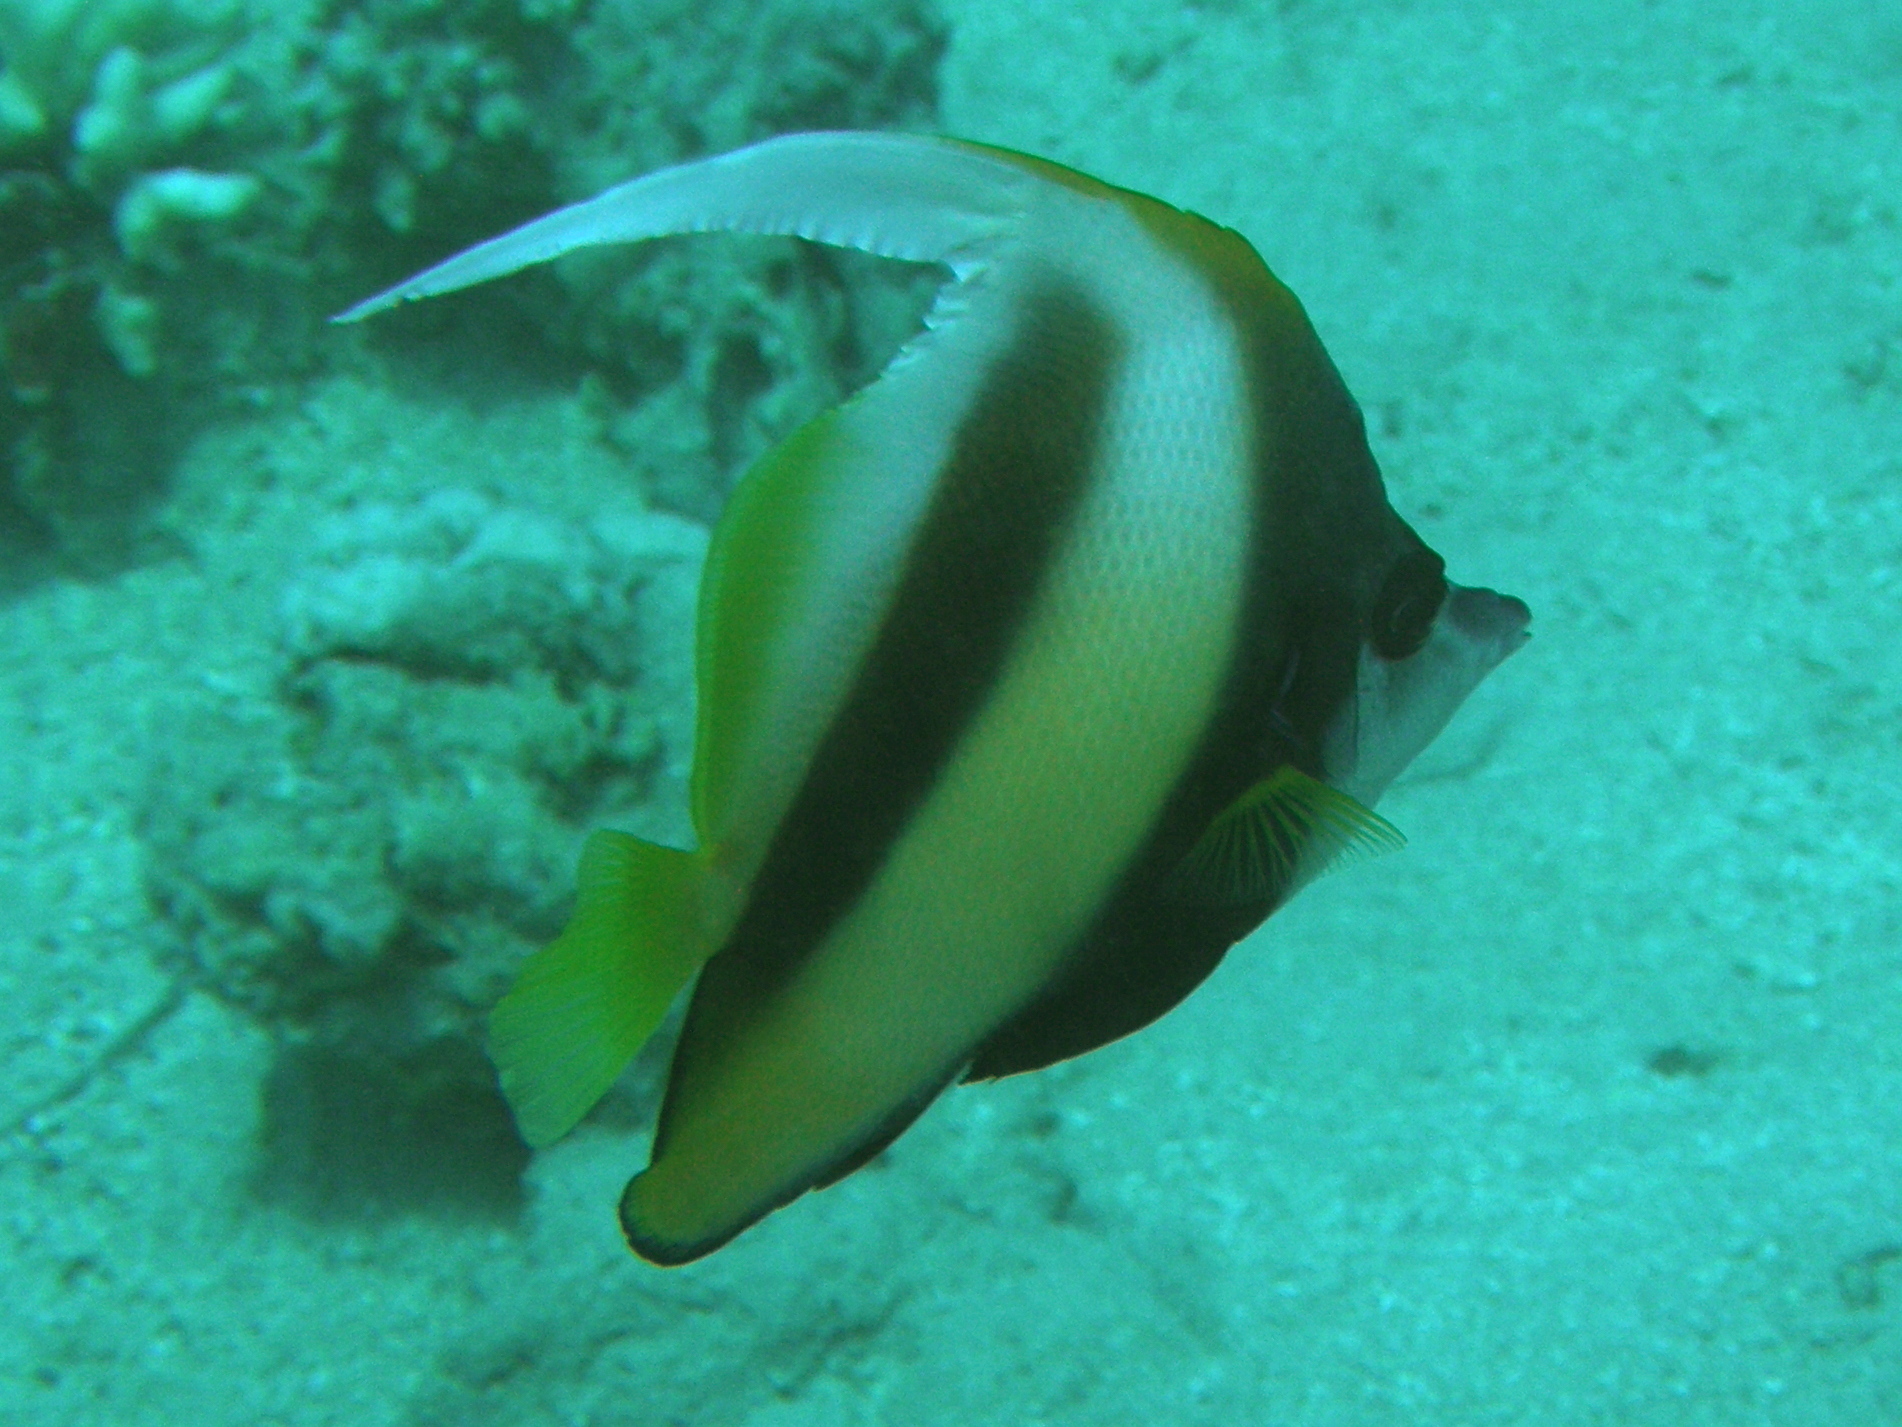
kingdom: Animalia
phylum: Chordata
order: Perciformes
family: Chaetodontidae
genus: Heniochus
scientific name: Heniochus intermedius
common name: Red sea bannerfish
